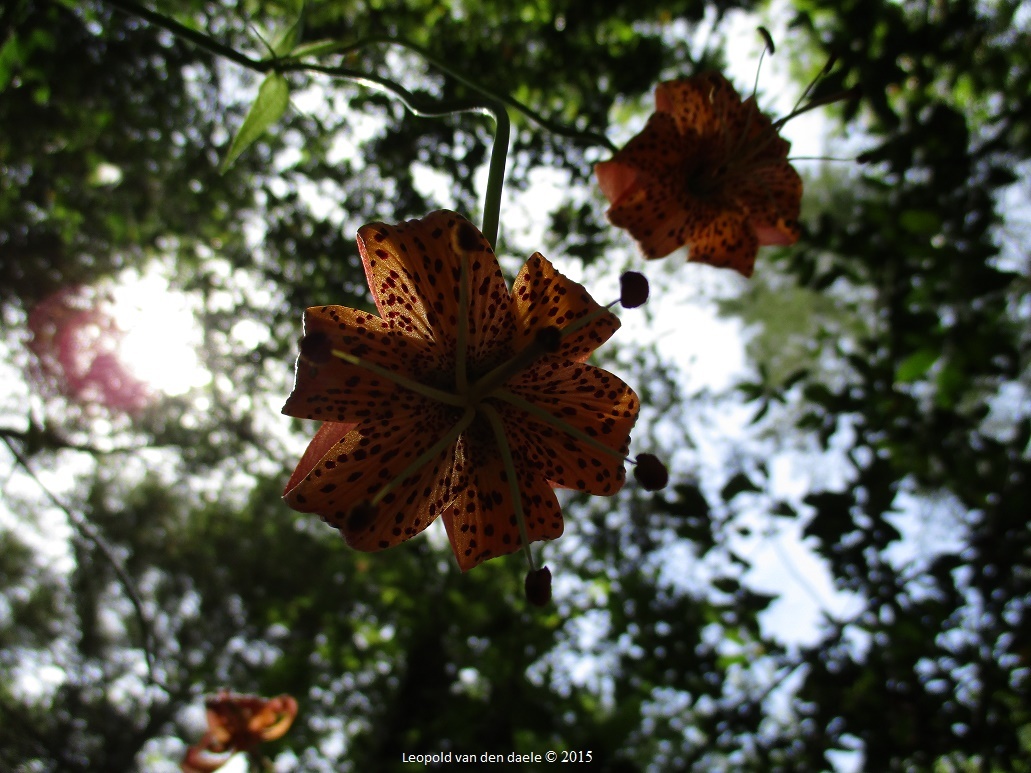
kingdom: Plantae
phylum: Tracheophyta
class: Liliopsida
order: Liliales
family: Liliaceae
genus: Lilium
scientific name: Lilium pardalinum
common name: Panther lily
